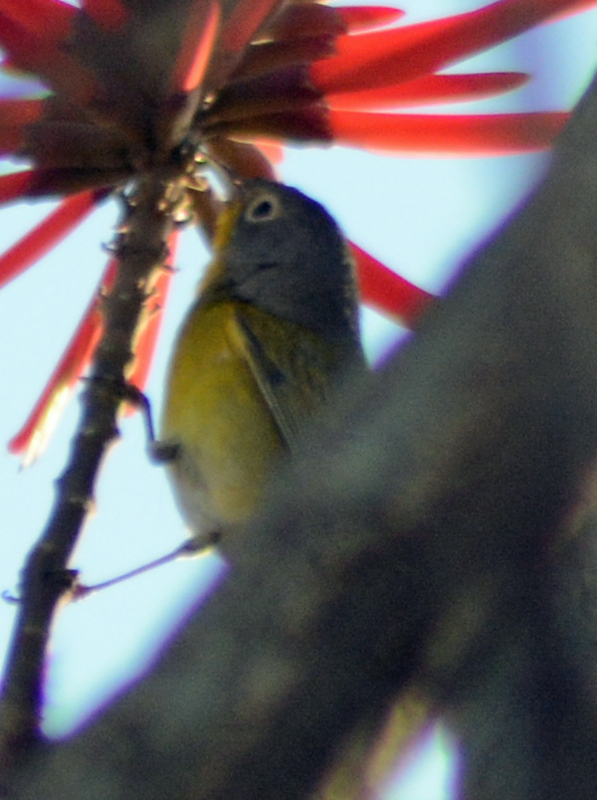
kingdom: Animalia
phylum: Chordata
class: Aves
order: Passeriformes
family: Parulidae
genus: Leiothlypis
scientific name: Leiothlypis ruficapilla
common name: Nashville warbler
